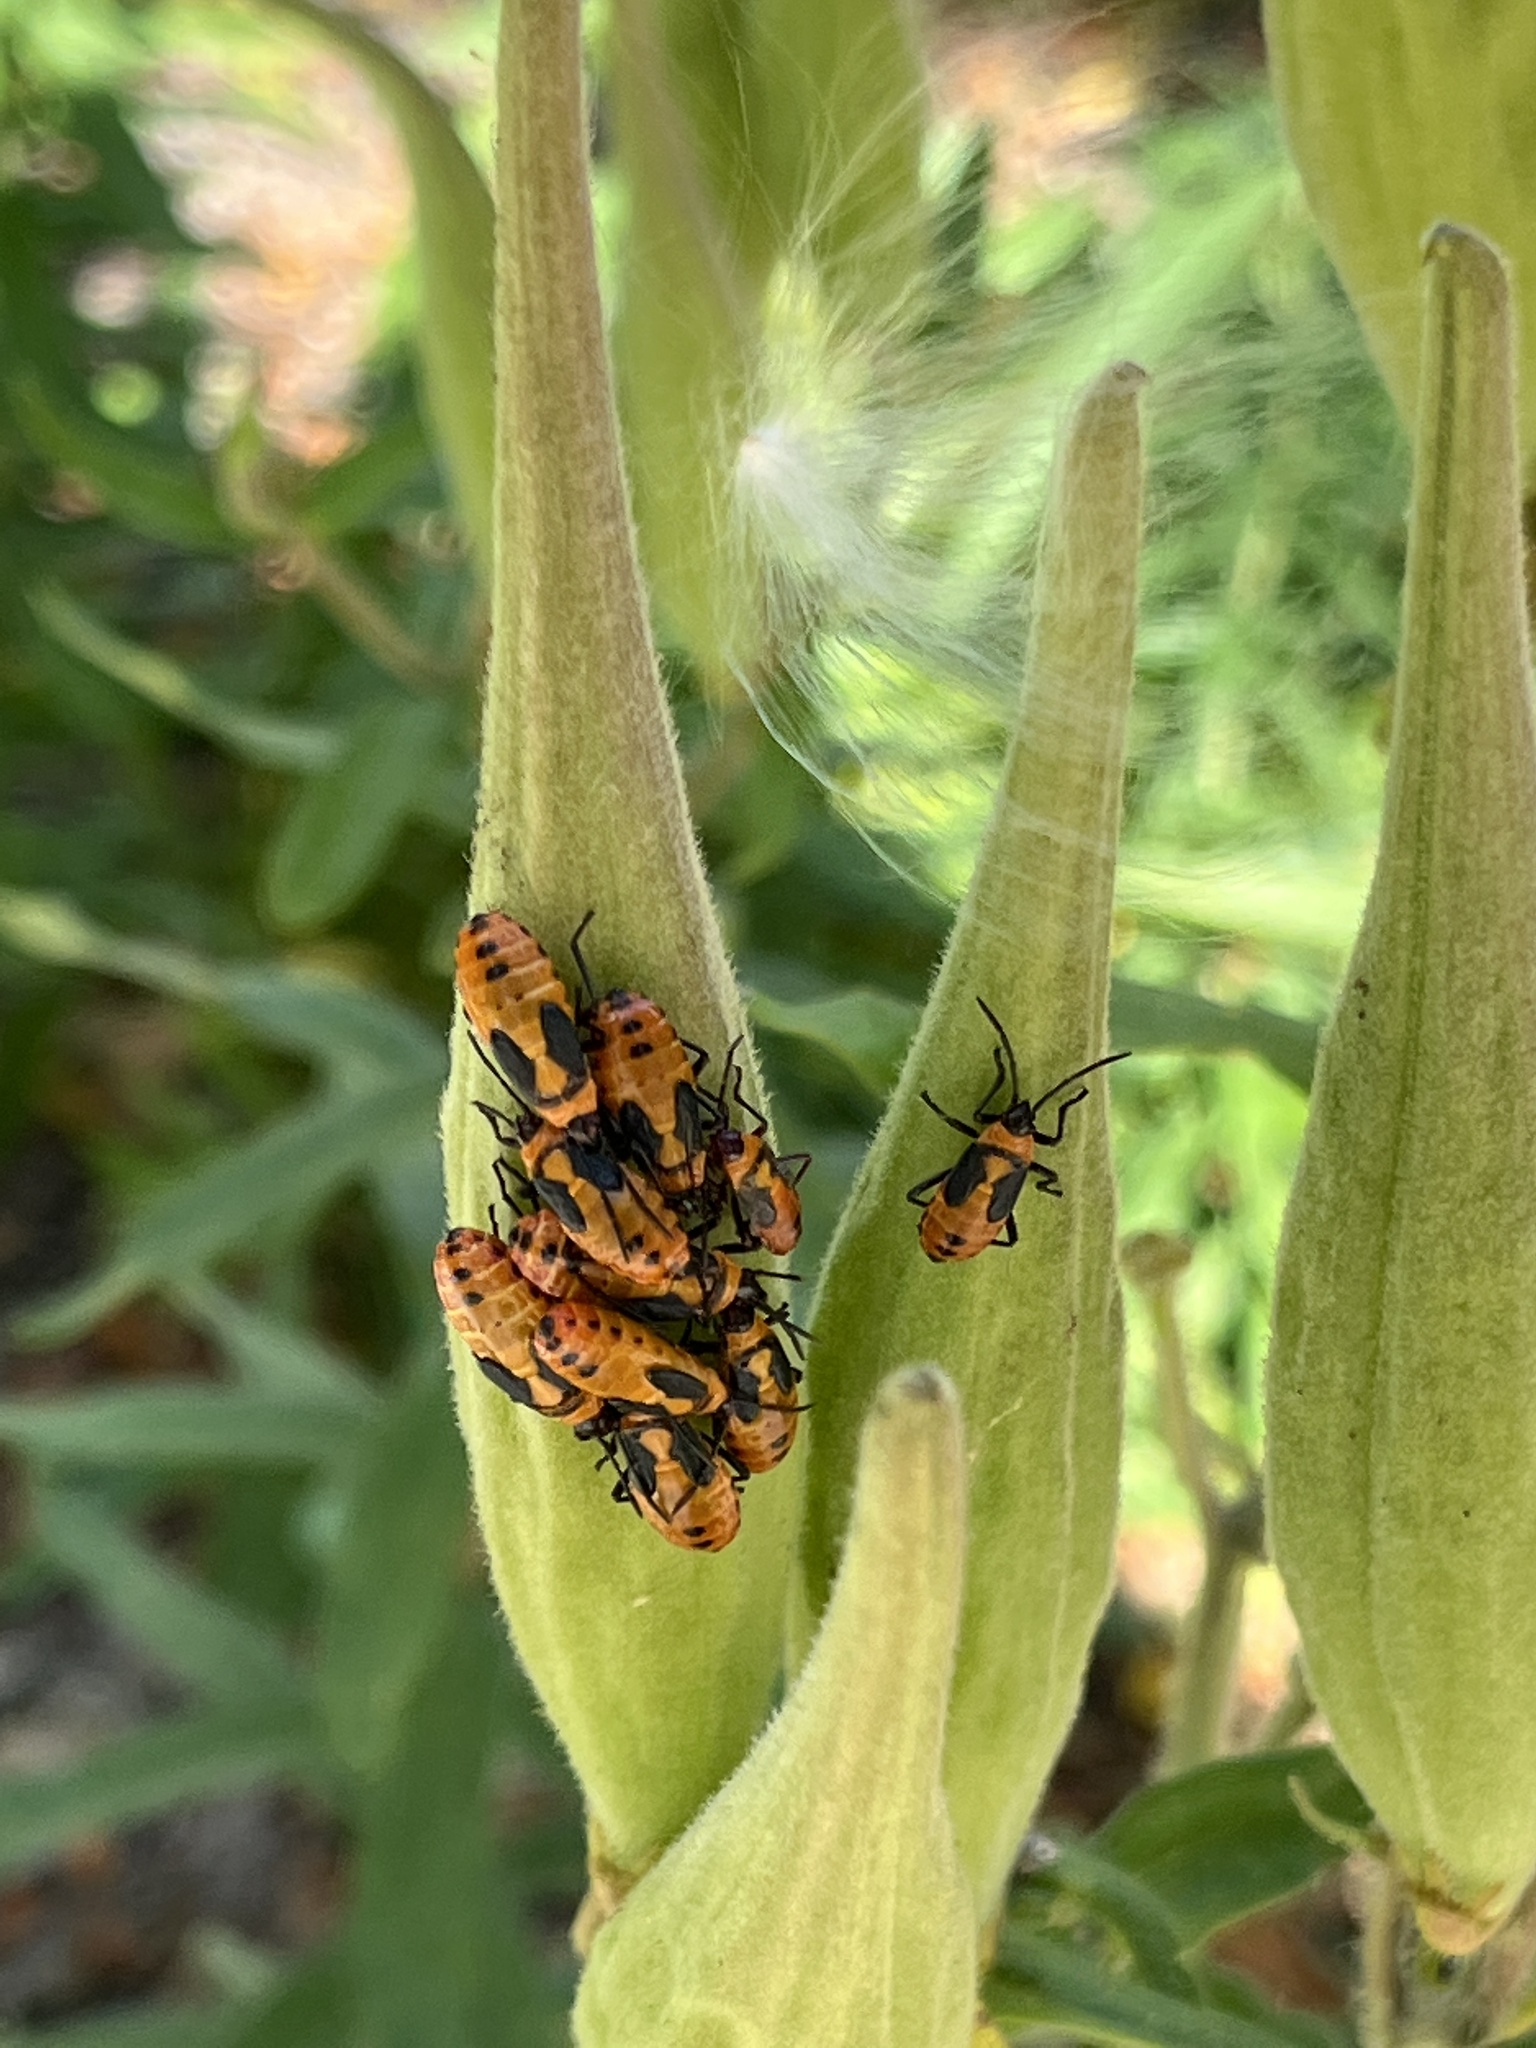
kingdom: Animalia
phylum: Arthropoda
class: Insecta
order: Hemiptera
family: Lygaeidae
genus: Oncopeltus
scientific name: Oncopeltus fasciatus
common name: Large milkweed bug
